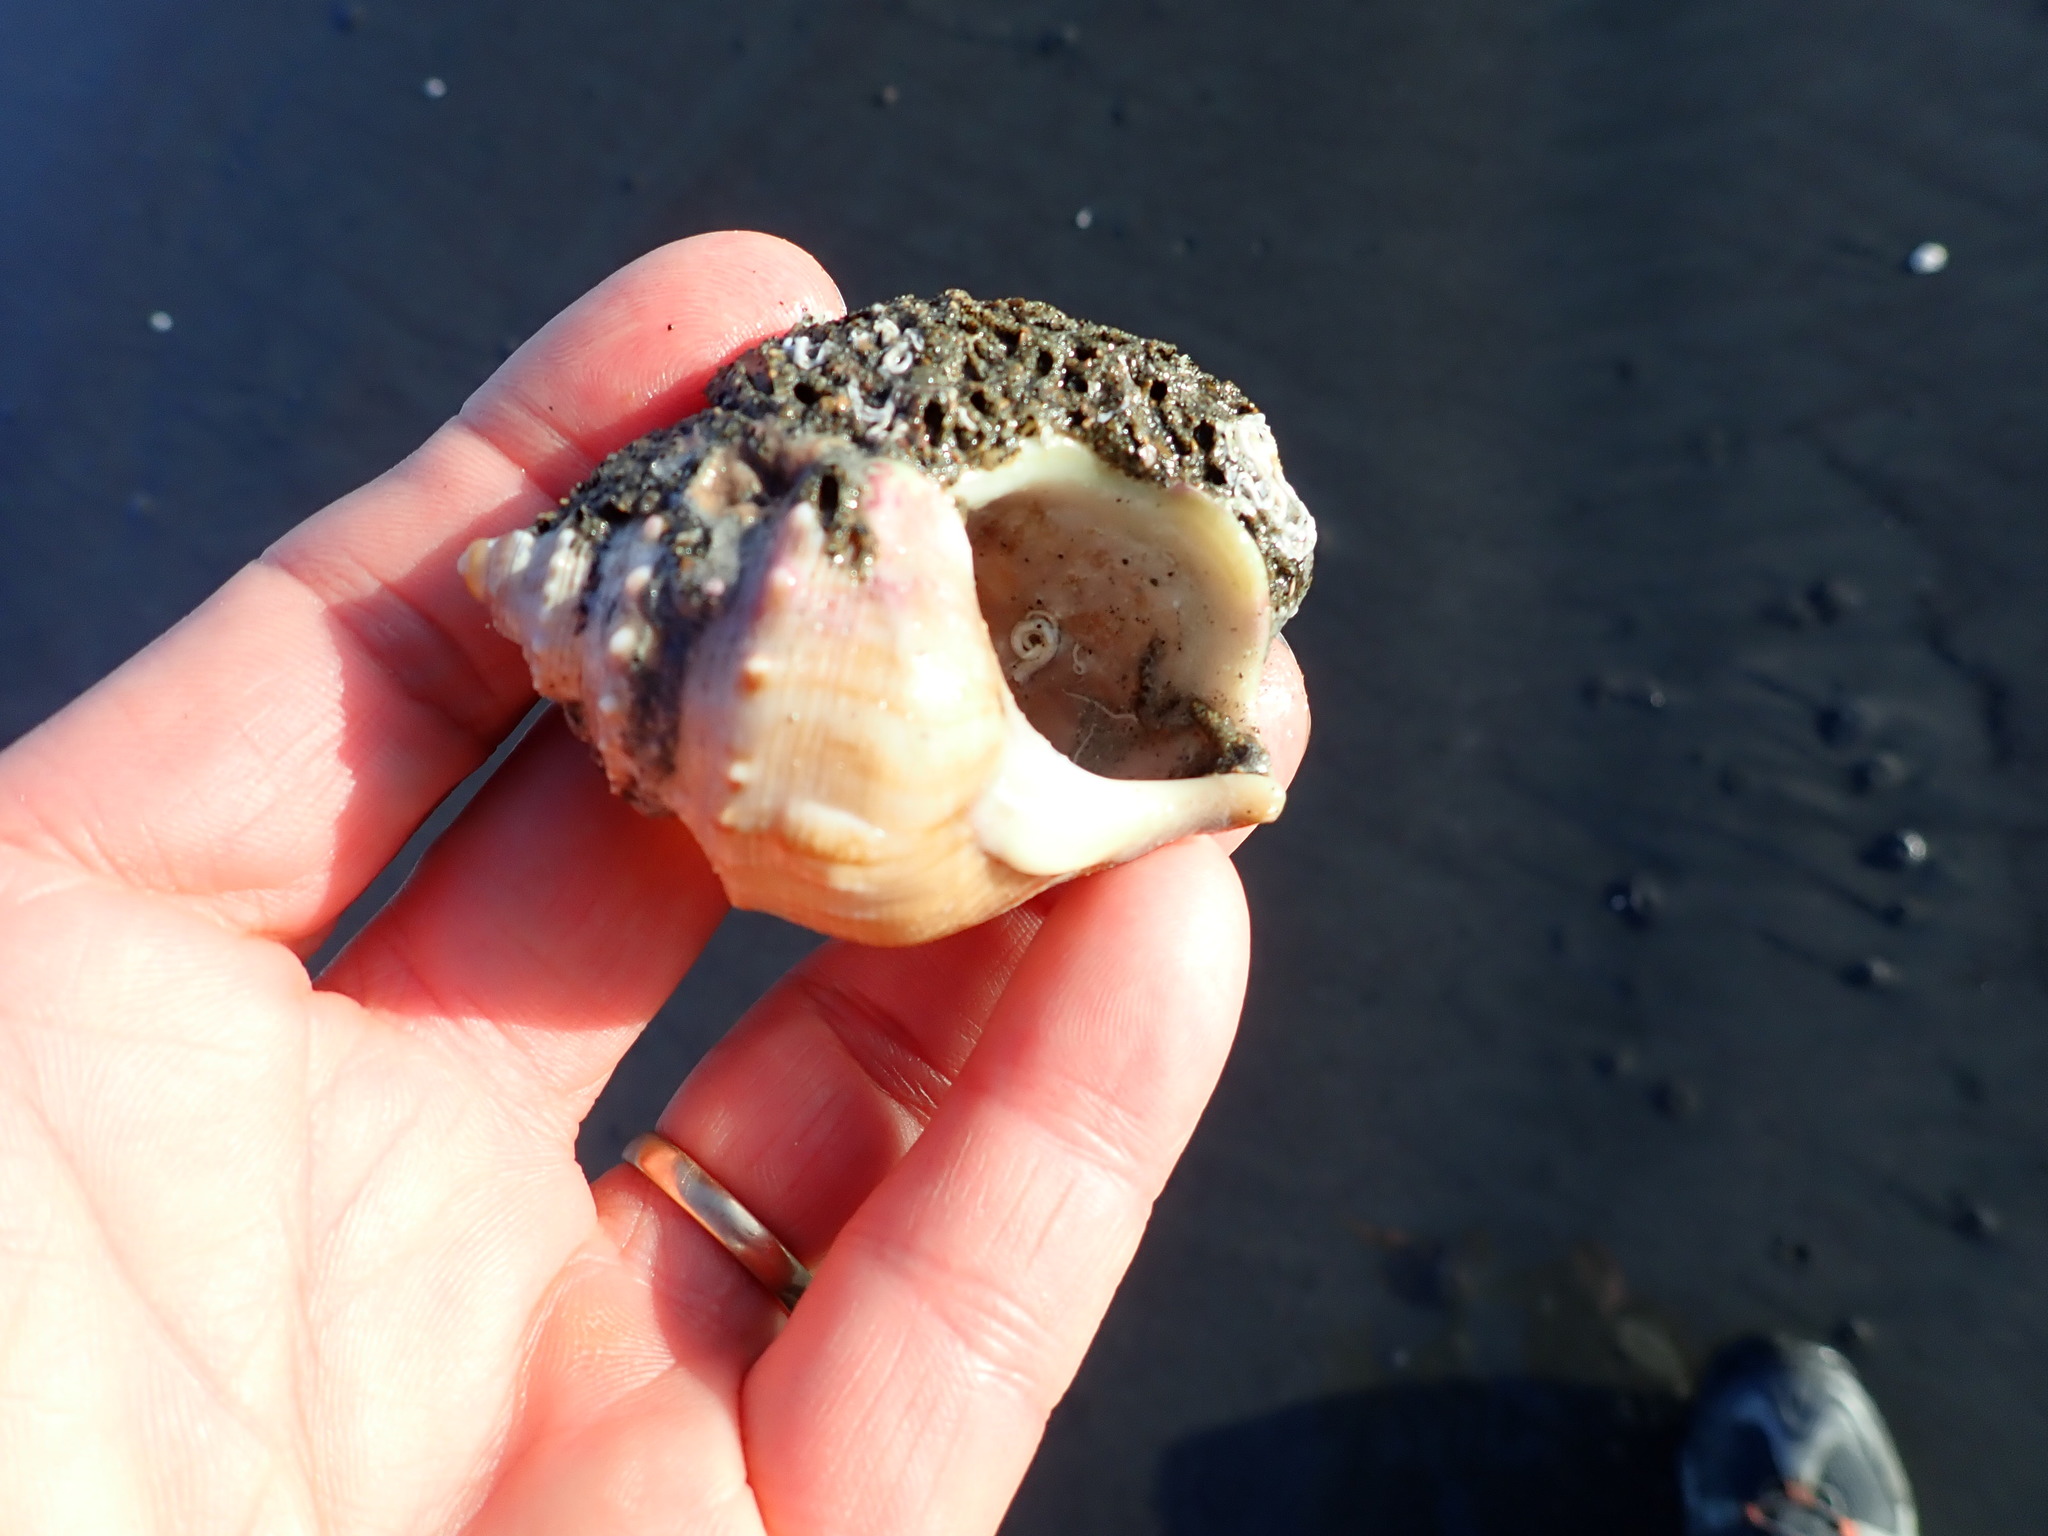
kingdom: Animalia
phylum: Mollusca
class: Gastropoda
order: Littorinimorpha
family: Struthiolariidae
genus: Struthiolaria
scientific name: Struthiolaria papulosa
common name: Large ostrich foot
